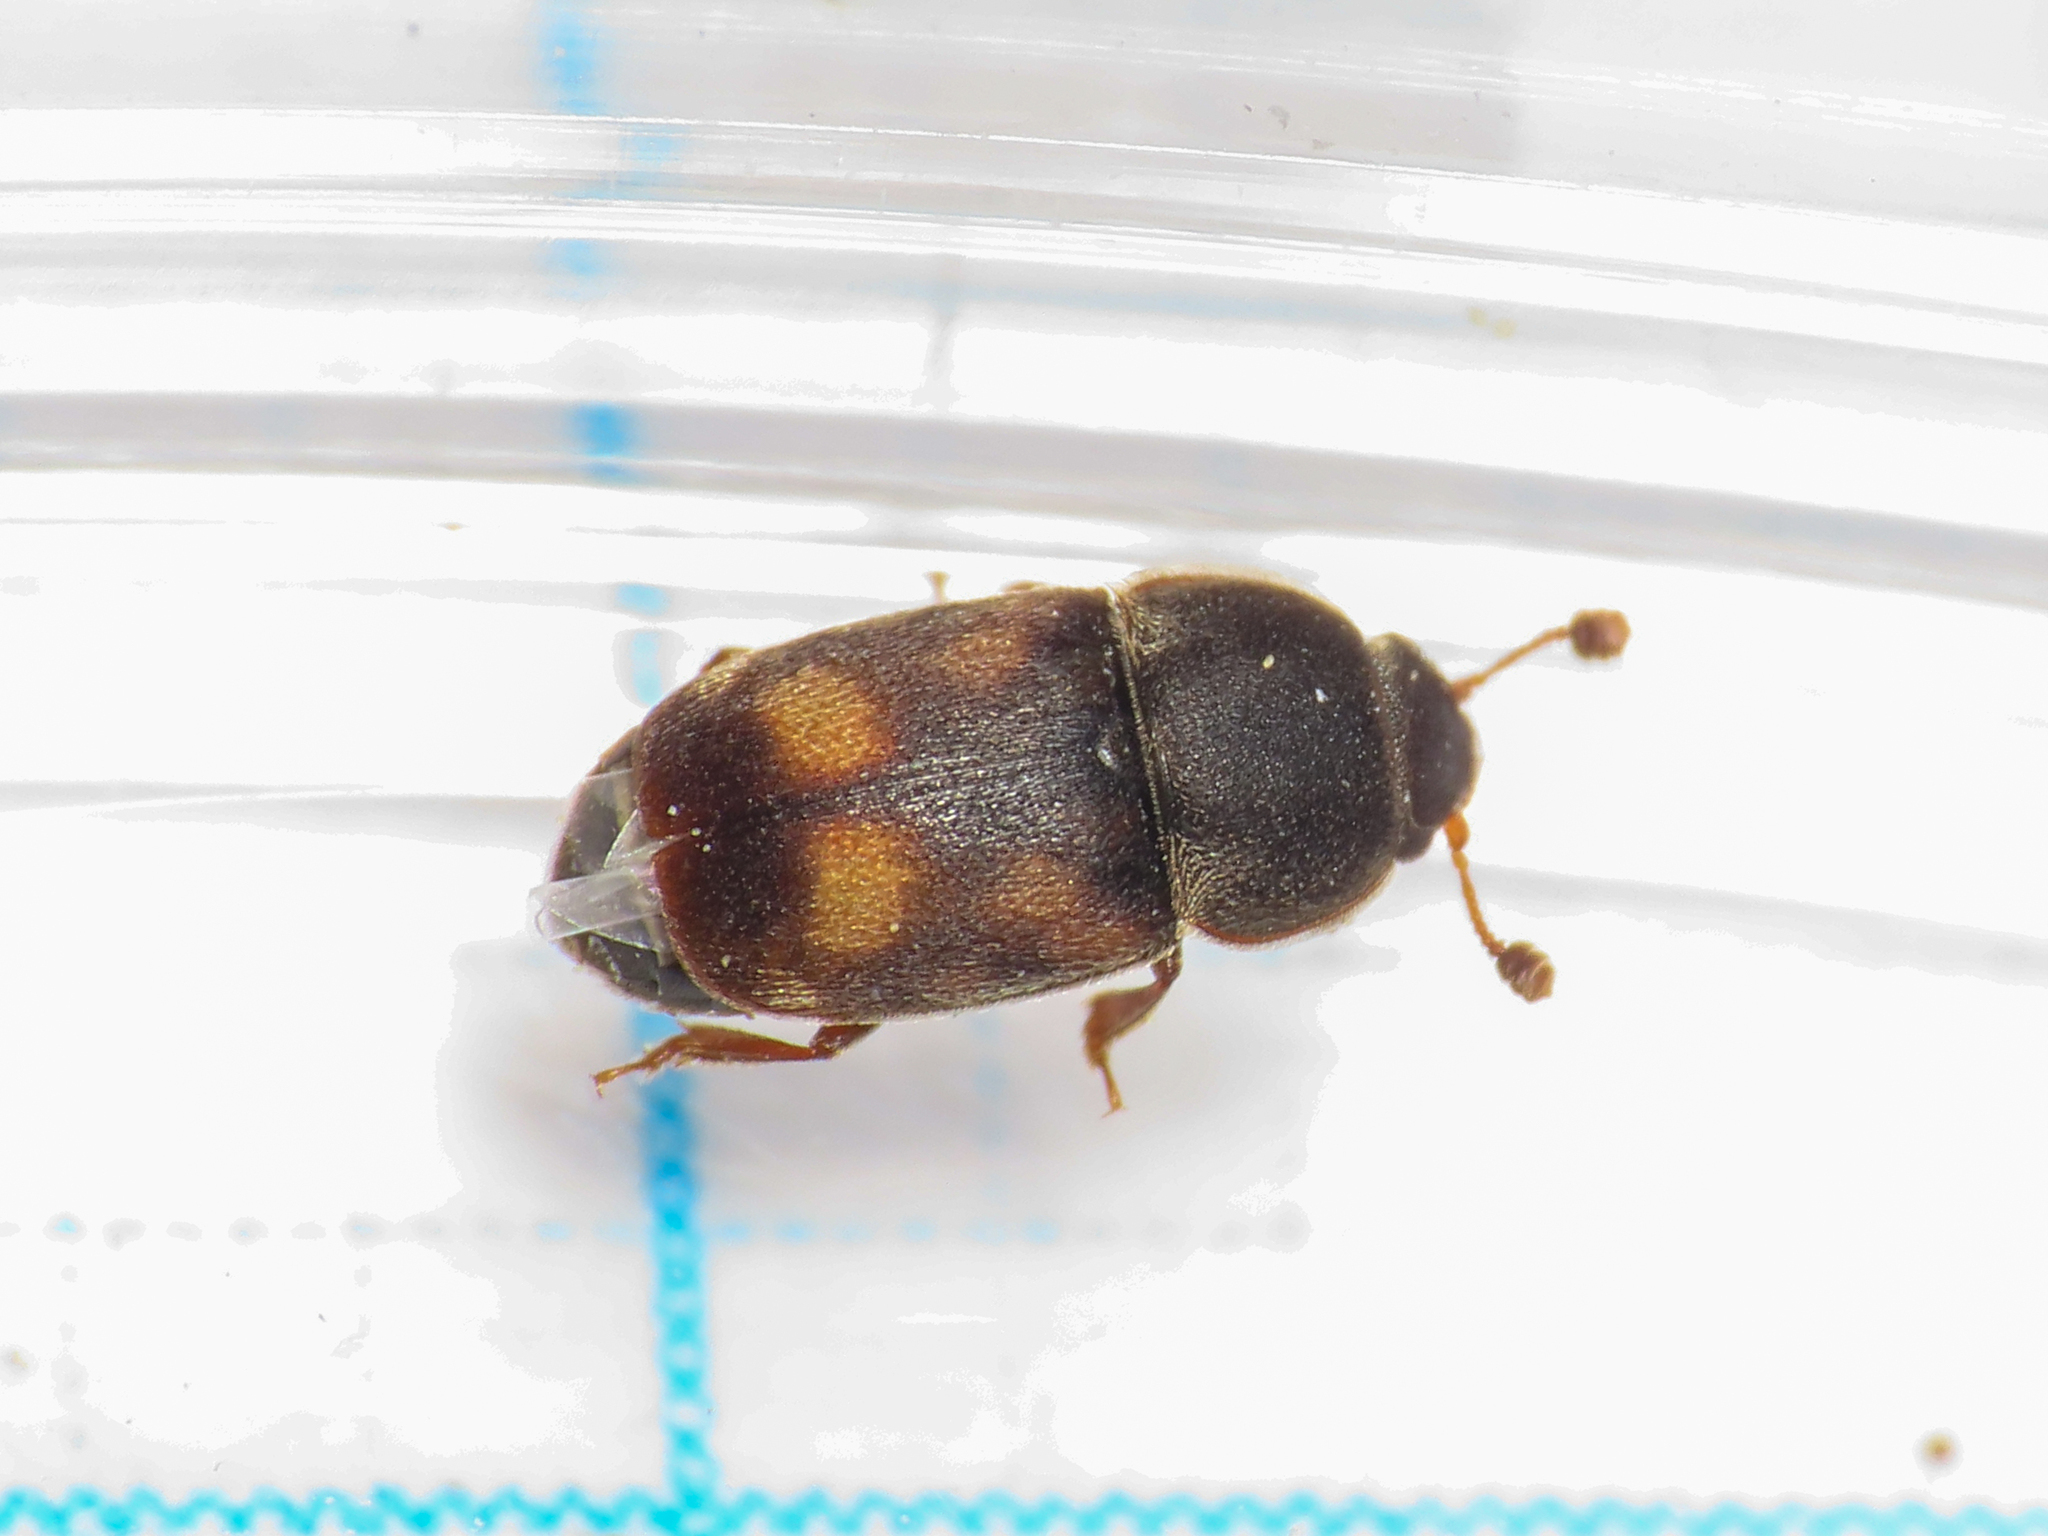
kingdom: Animalia
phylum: Arthropoda
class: Insecta
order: Coleoptera
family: Nitidulidae
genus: Nitidula
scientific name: Nitidula carnaria
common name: Sap beetle
